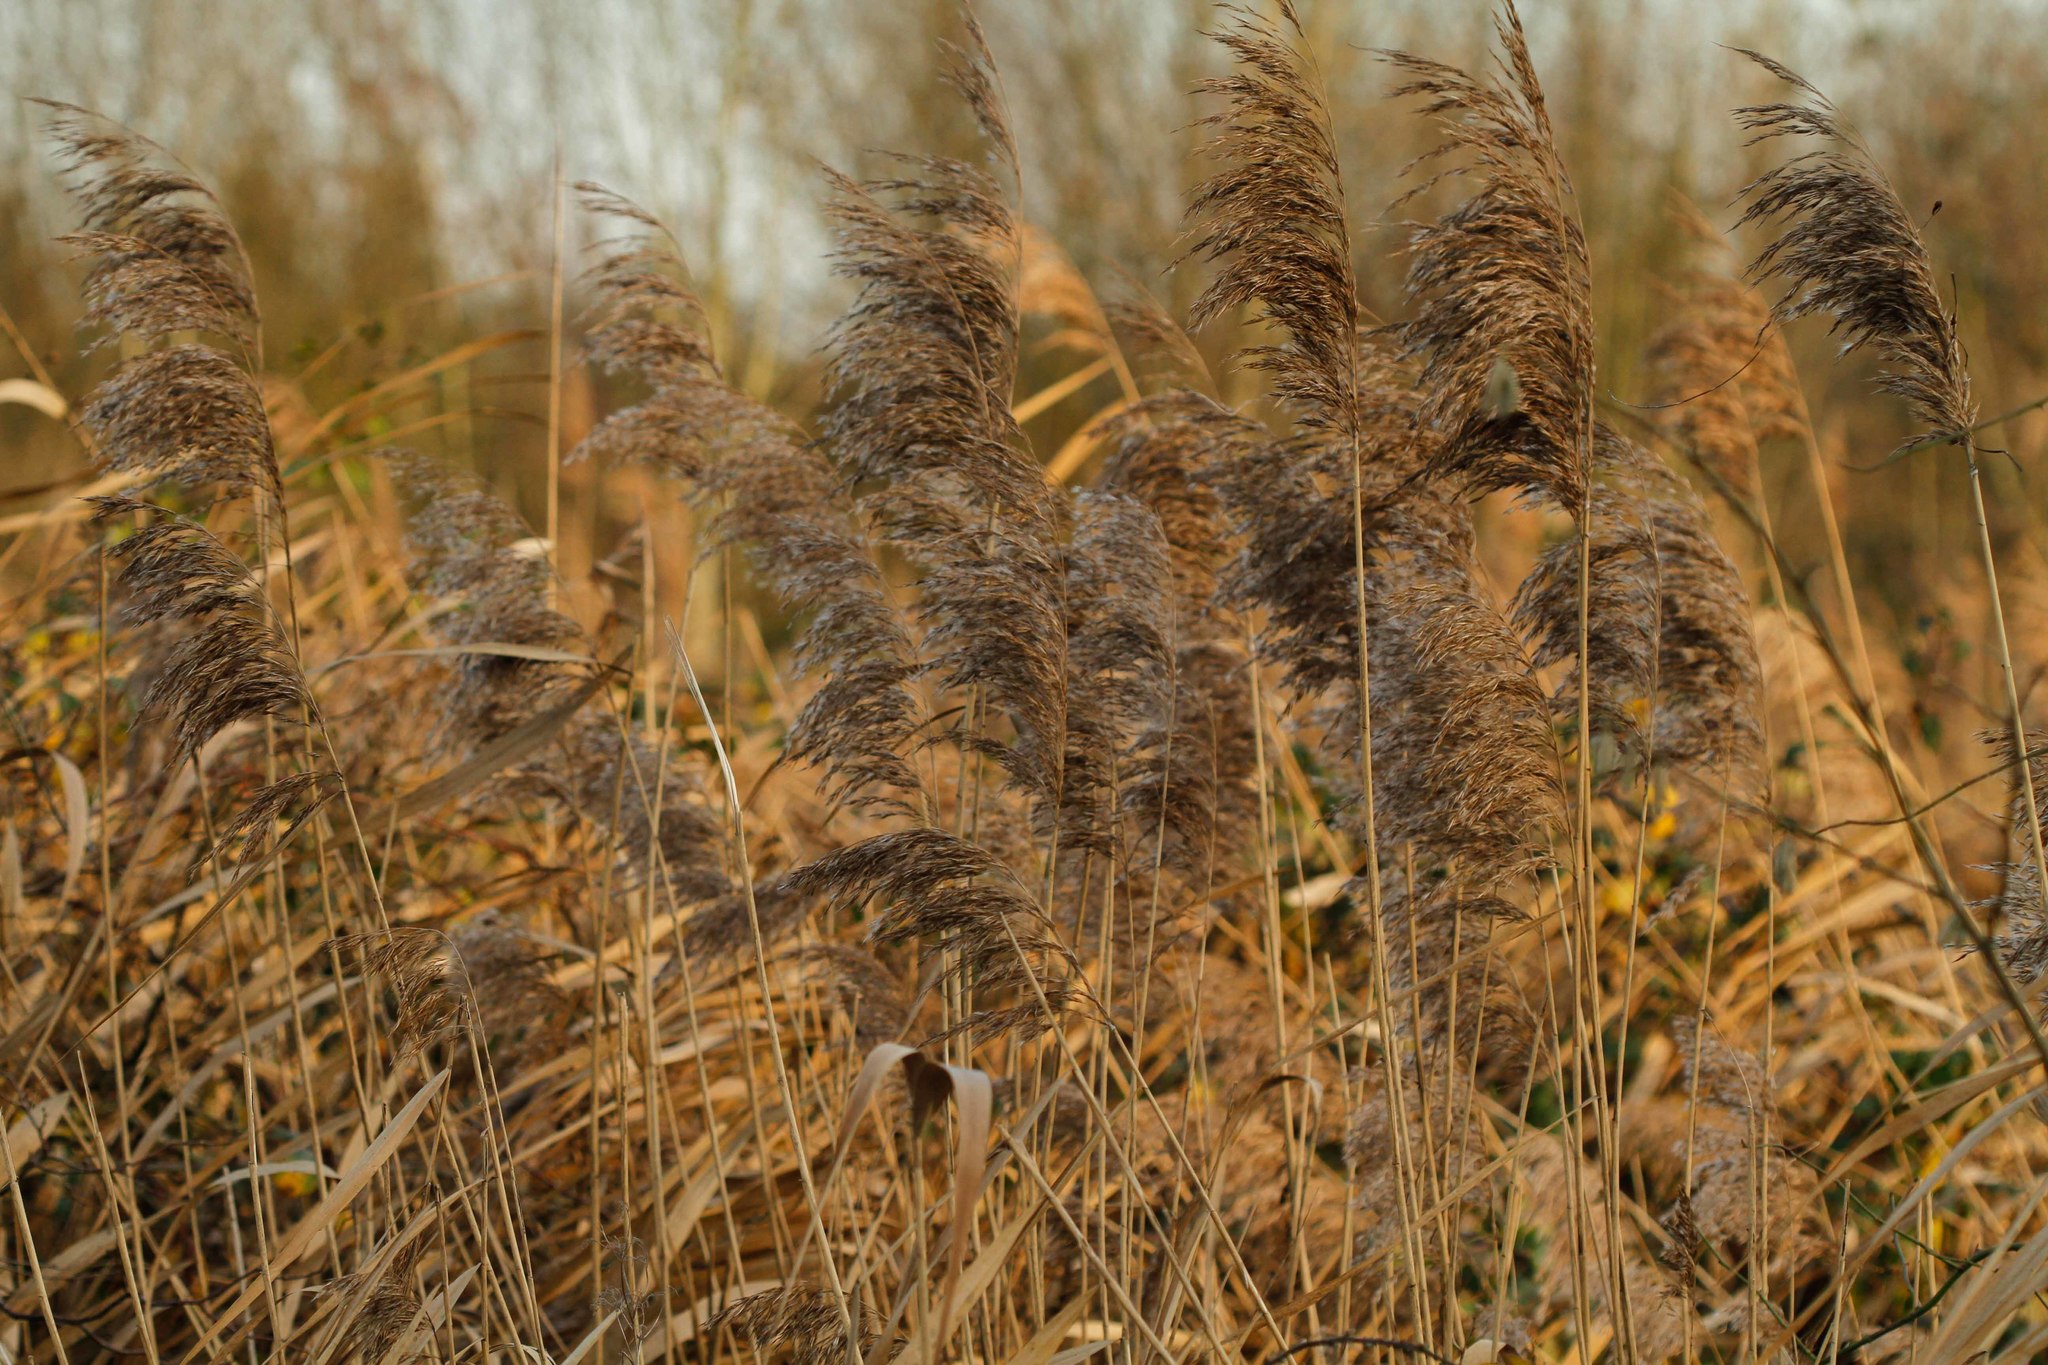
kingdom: Plantae
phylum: Tracheophyta
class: Liliopsida
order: Poales
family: Poaceae
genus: Phragmites
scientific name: Phragmites australis
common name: Common reed
